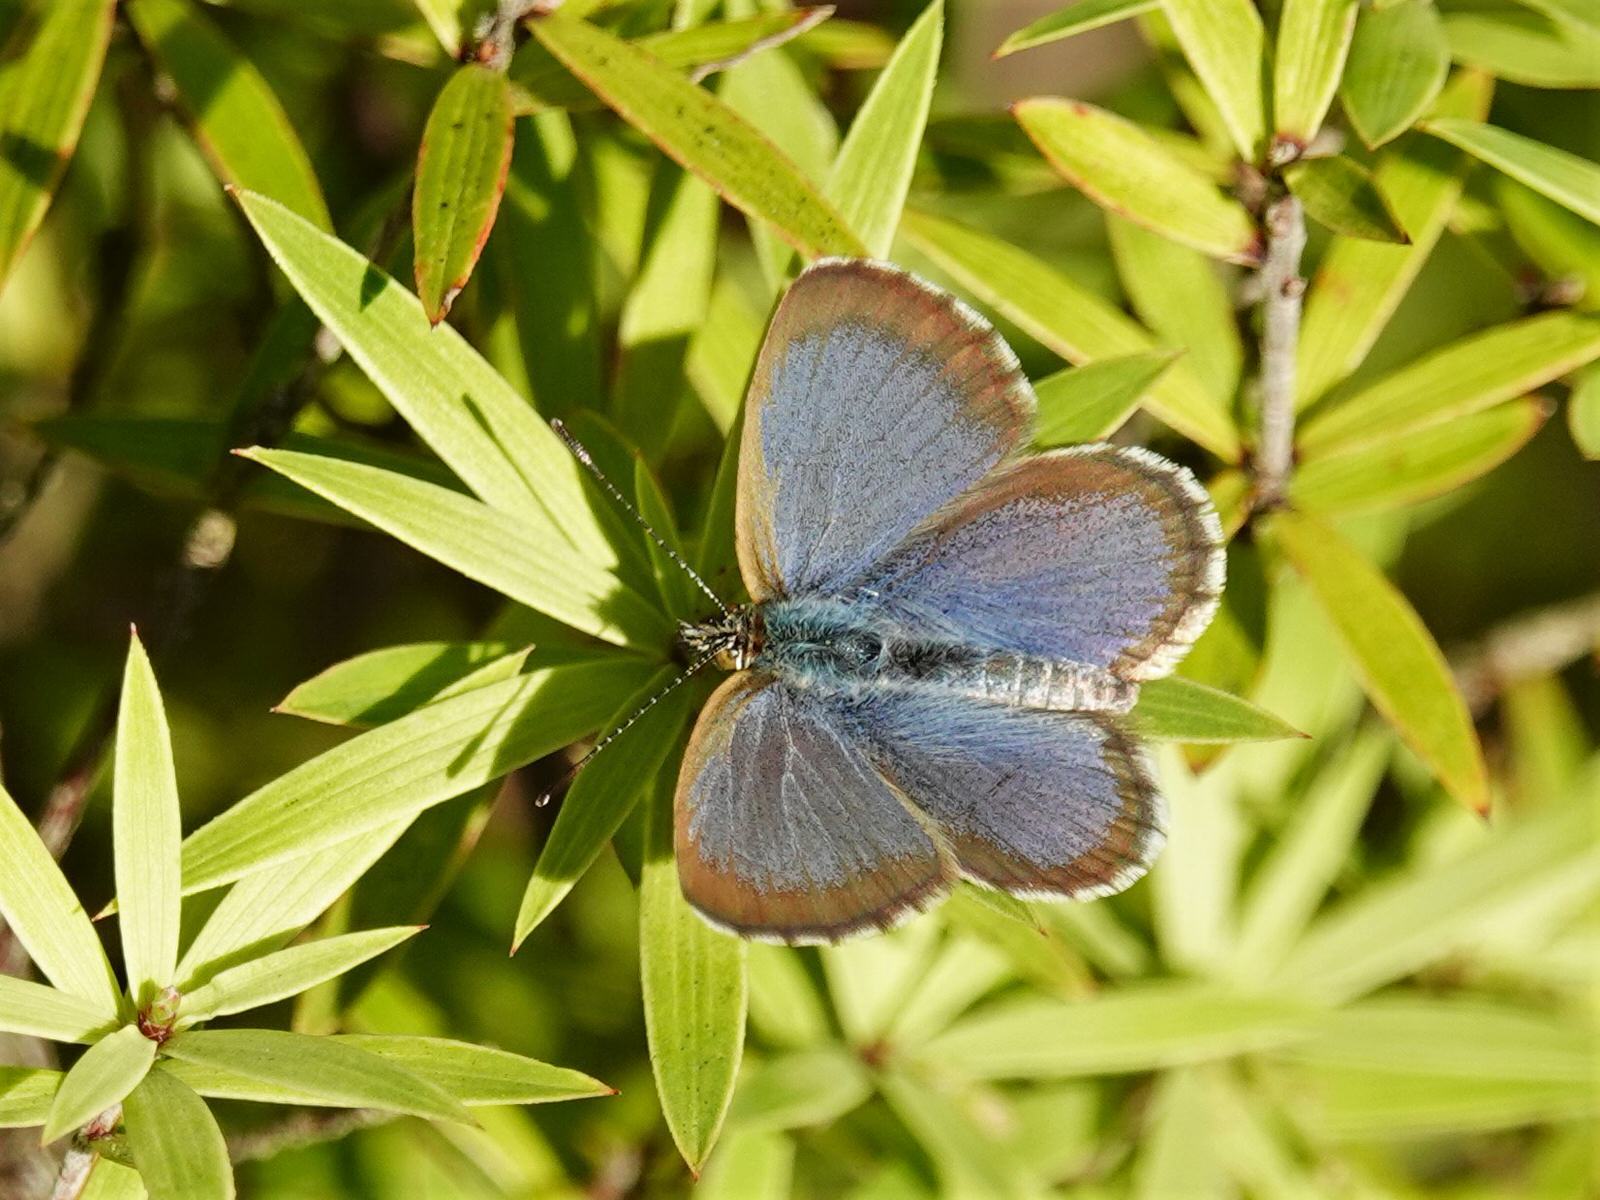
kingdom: Animalia
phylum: Arthropoda
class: Insecta
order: Lepidoptera
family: Lycaenidae
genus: Zizina
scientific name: Zizina labradus
